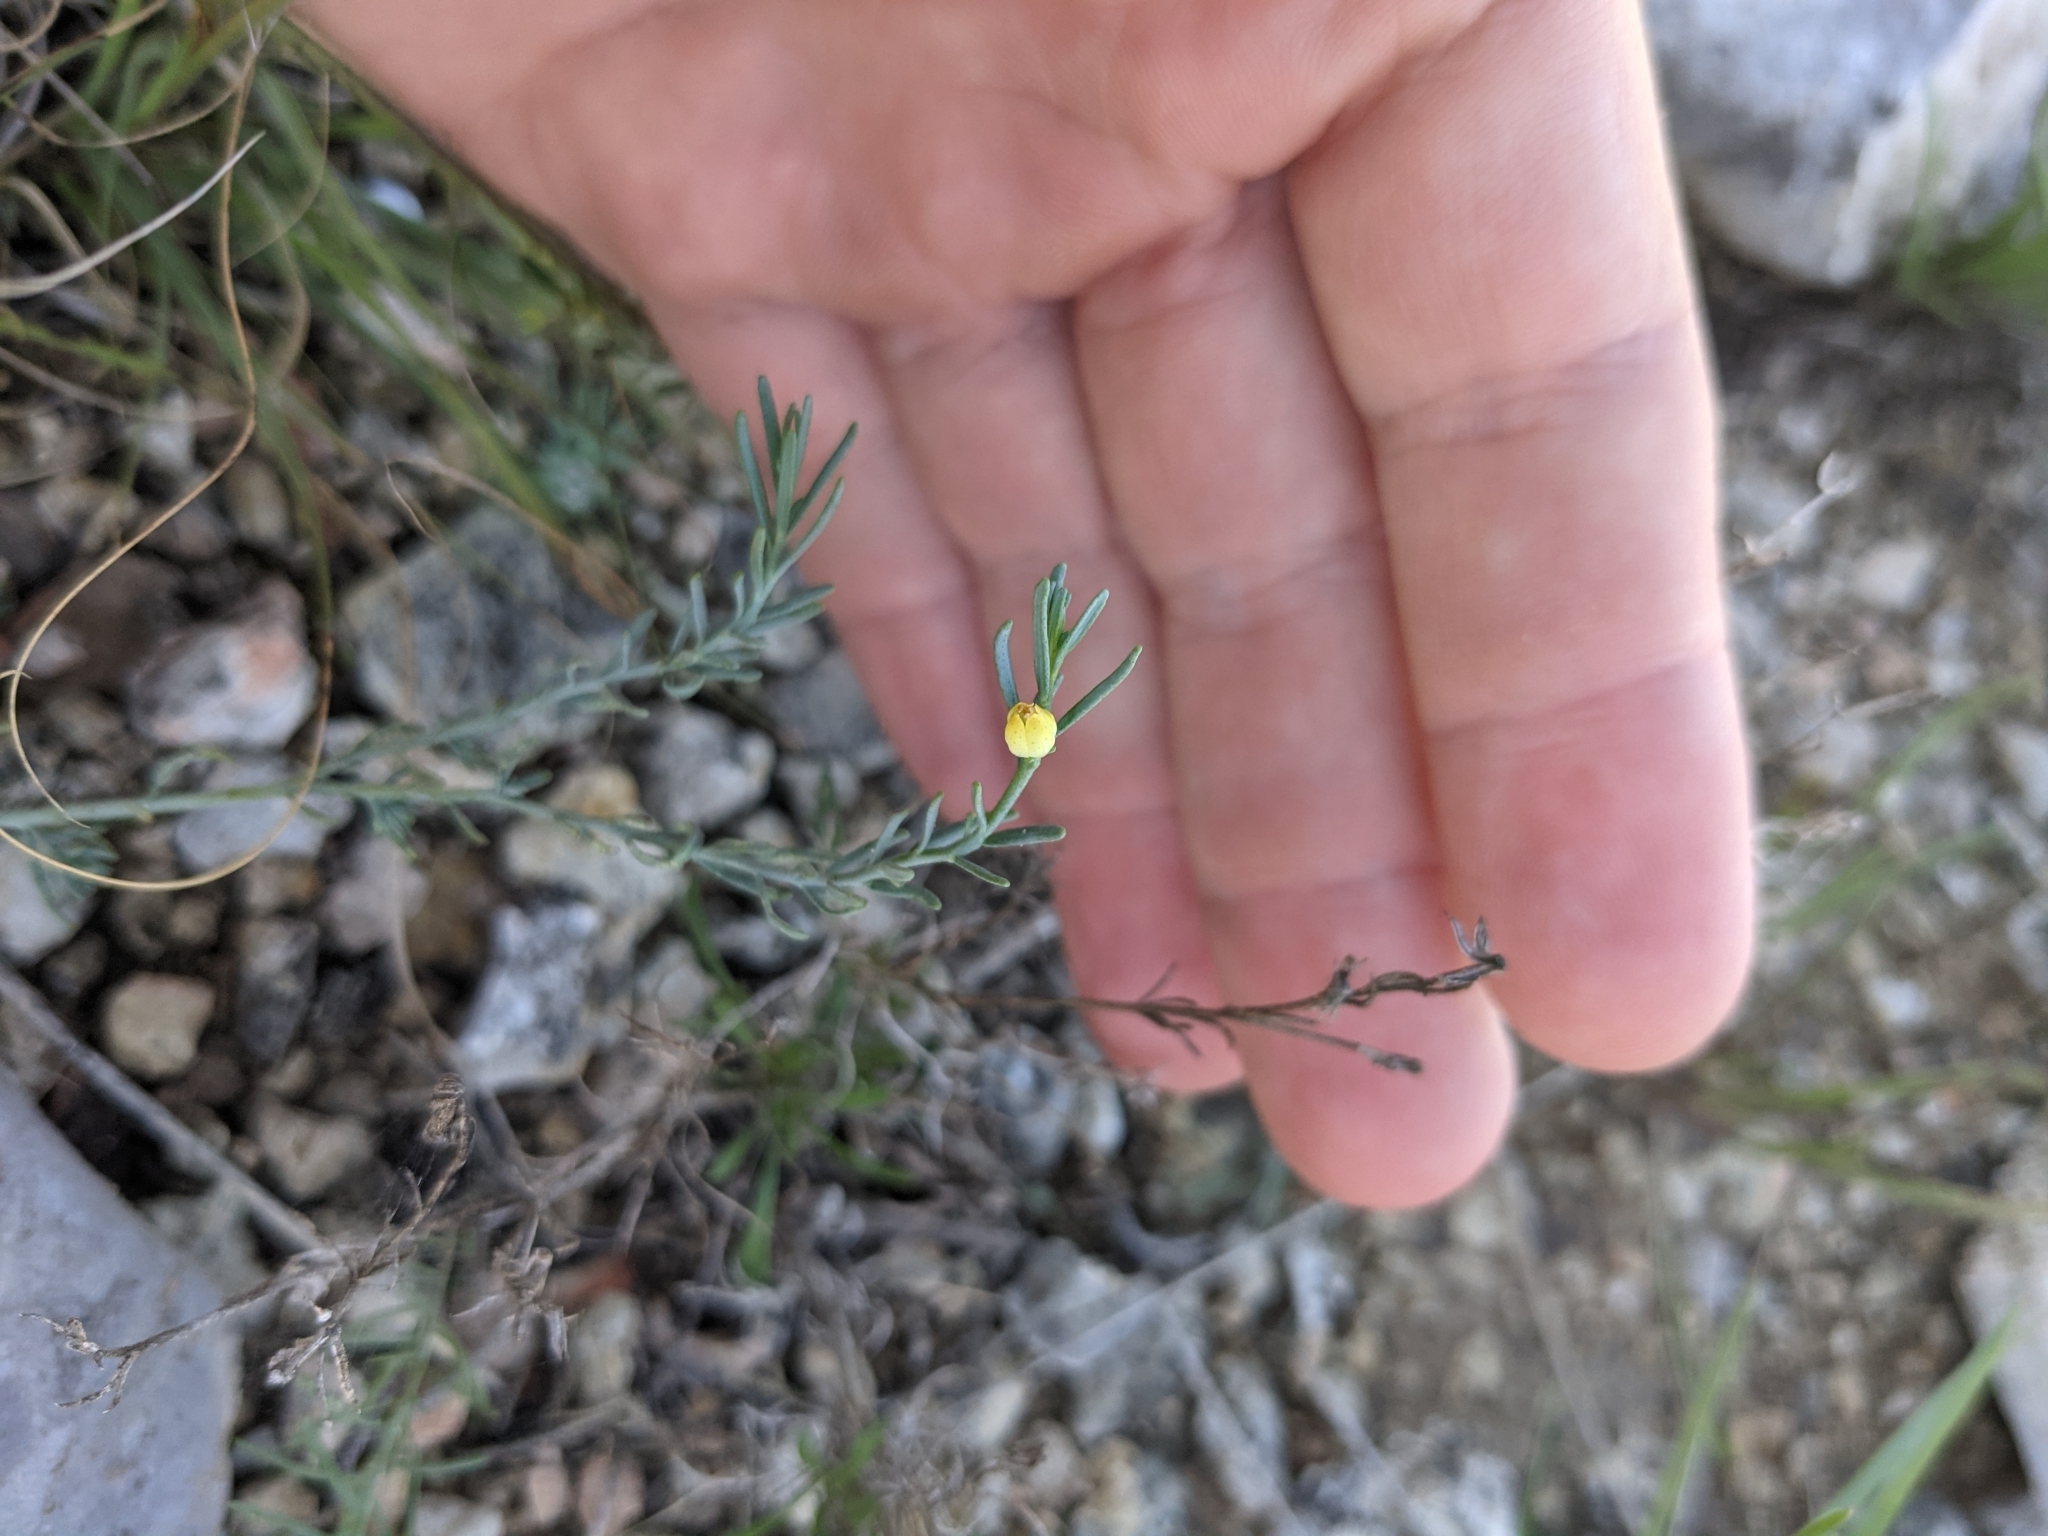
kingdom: Plantae
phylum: Tracheophyta
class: Magnoliopsida
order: Sapindales
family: Rutaceae
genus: Thamnosma
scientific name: Thamnosma texana
